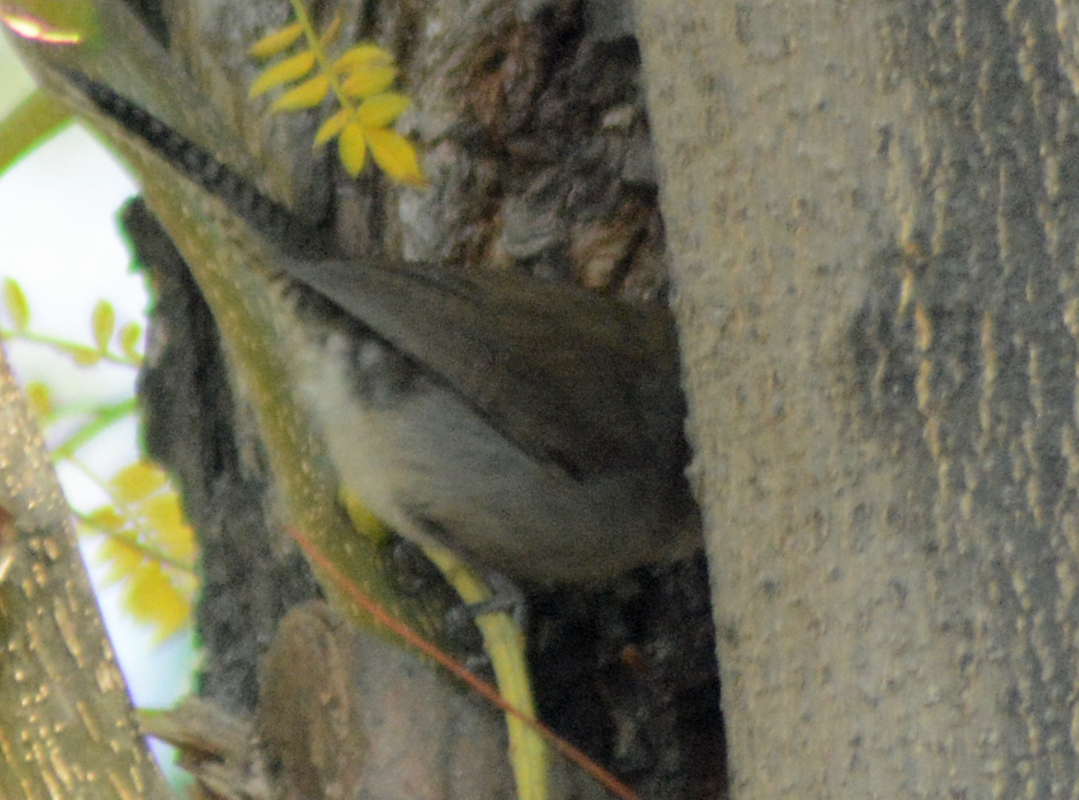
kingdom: Animalia
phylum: Chordata
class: Aves
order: Passeriformes
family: Troglodytidae
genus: Thryomanes
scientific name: Thryomanes bewickii
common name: Bewick's wren
